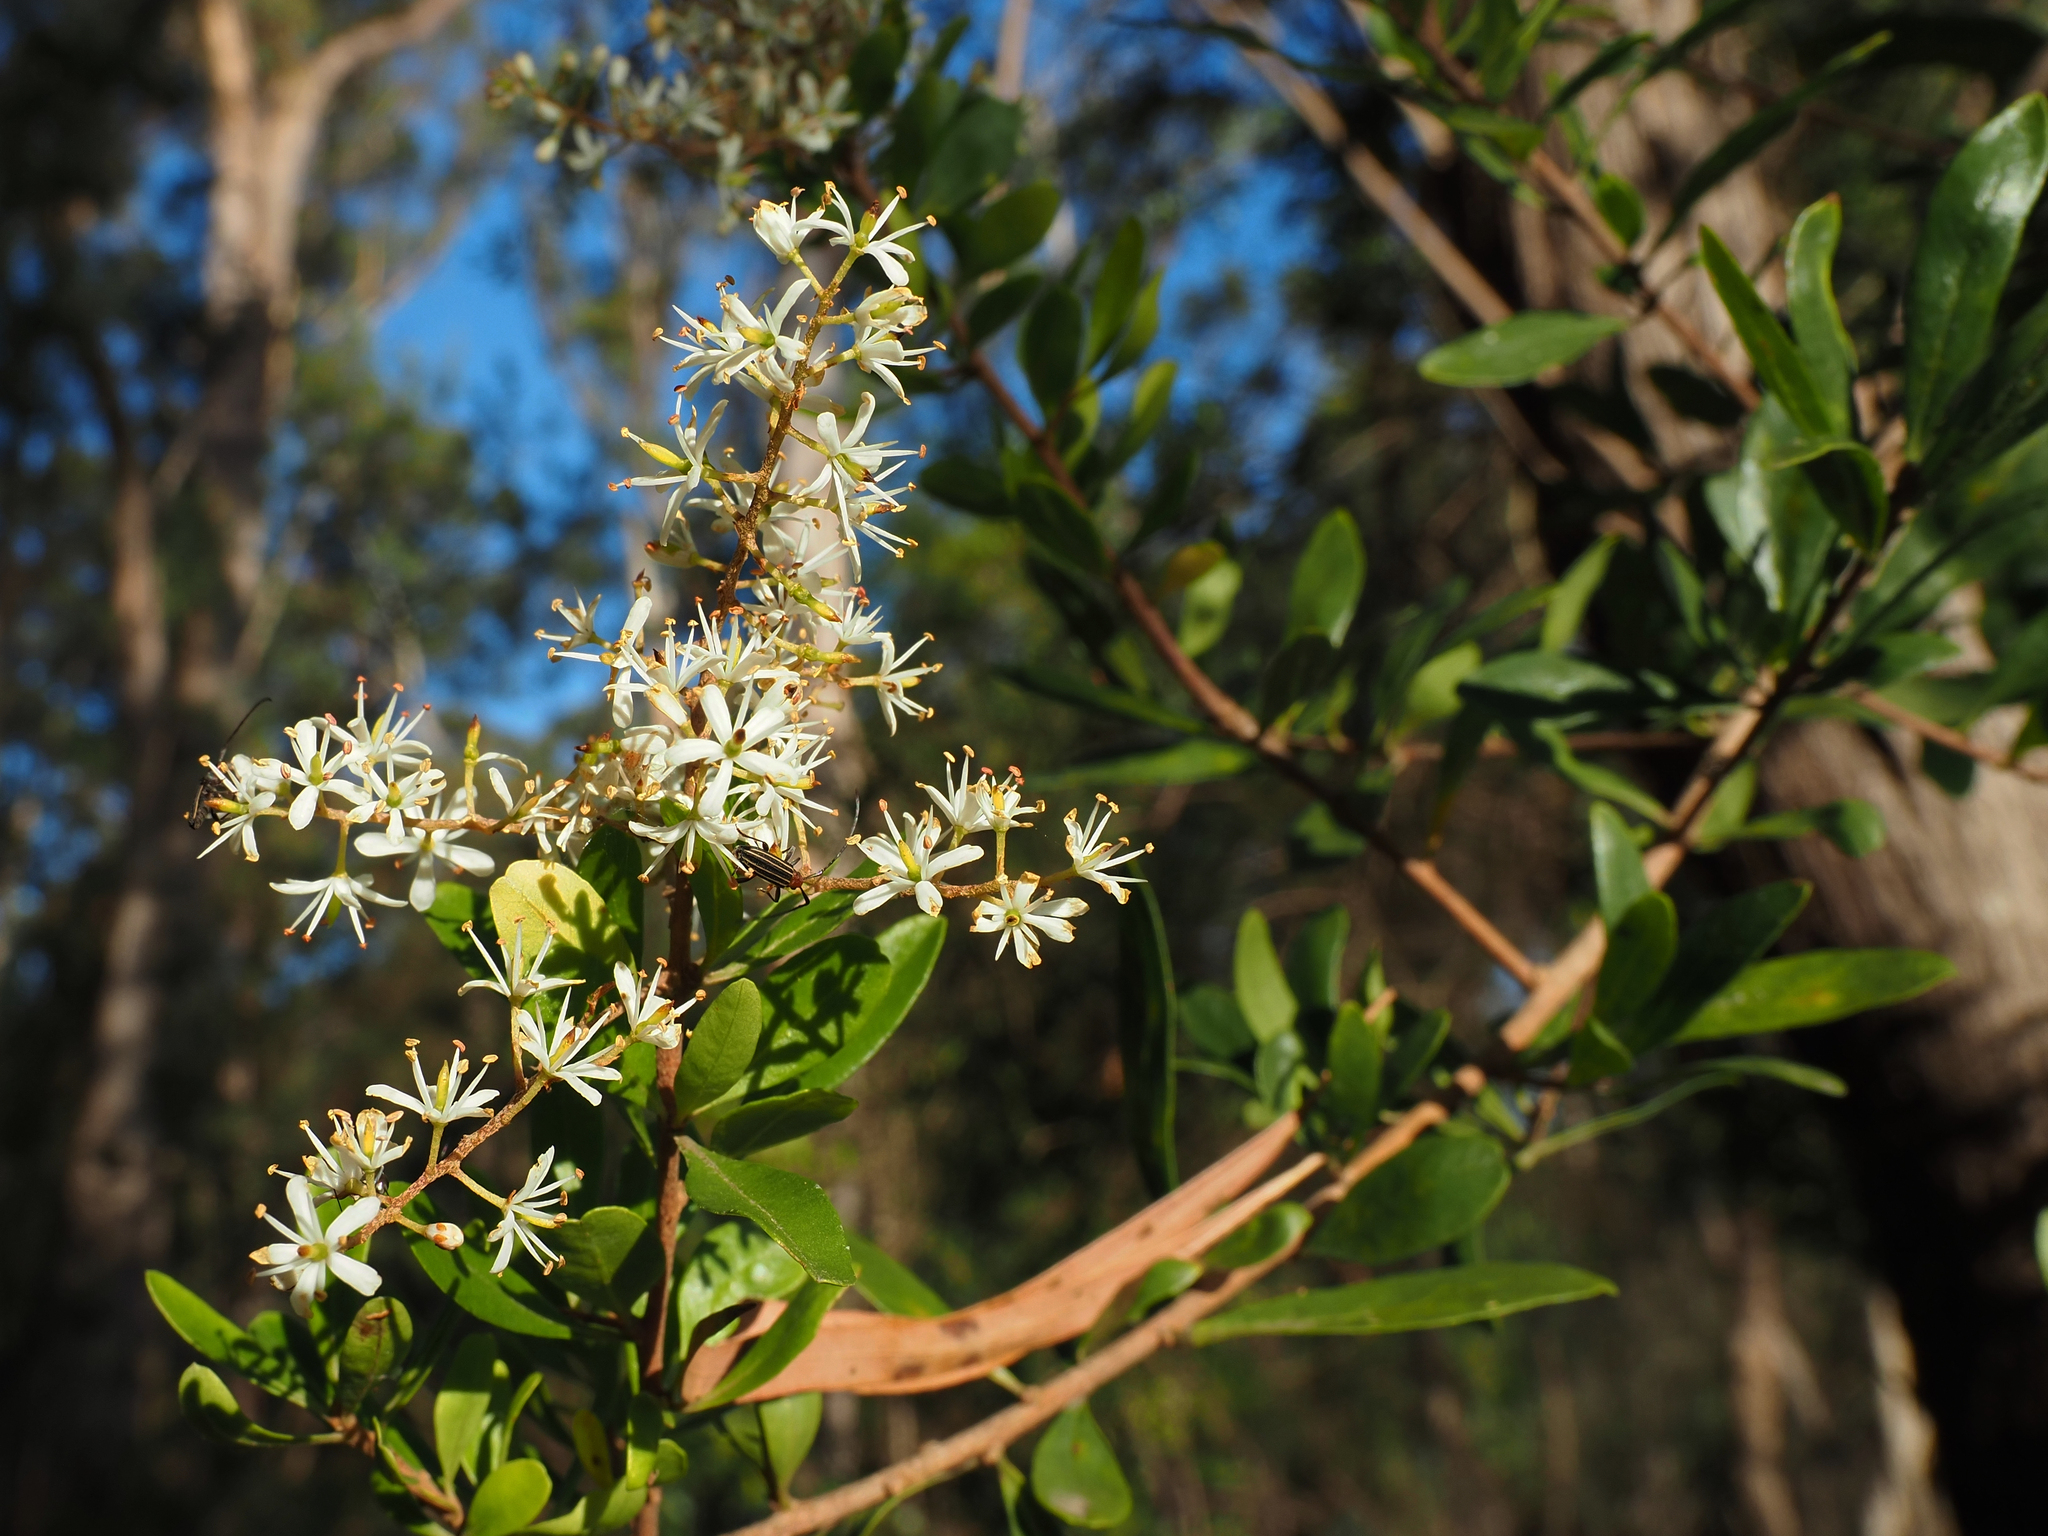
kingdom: Plantae
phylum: Tracheophyta
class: Magnoliopsida
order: Apiales
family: Pittosporaceae
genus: Bursaria
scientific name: Bursaria spinosa
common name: Australian blackthorn
